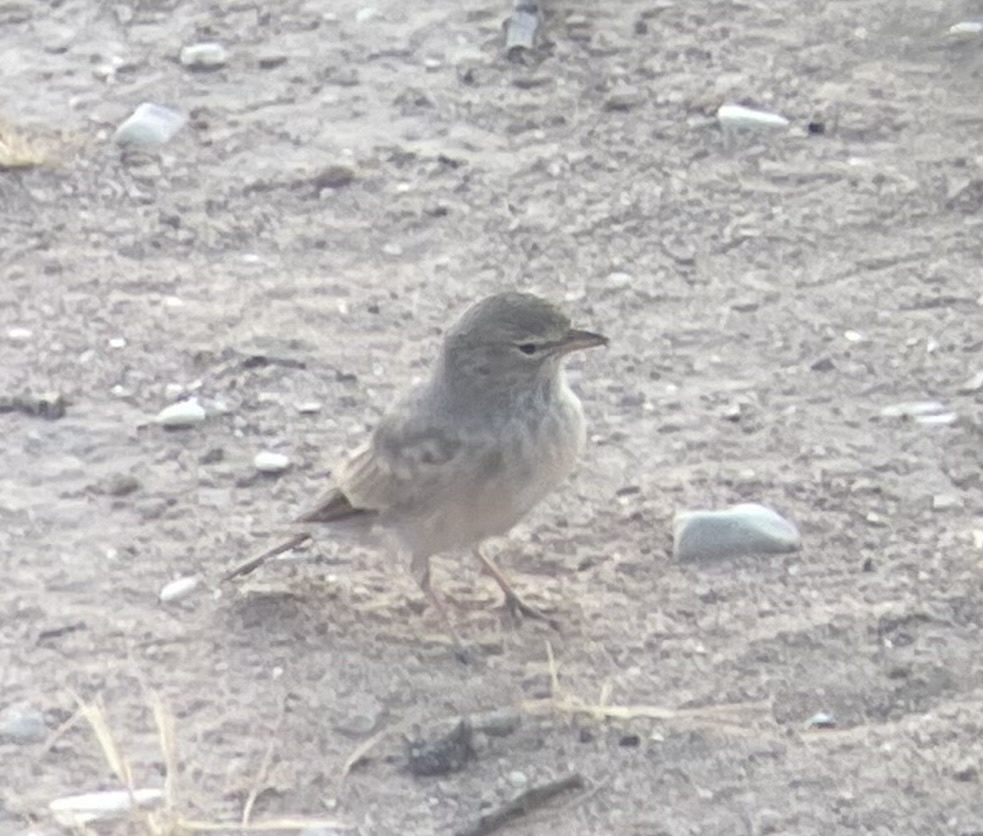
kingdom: Animalia
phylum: Chordata
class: Aves
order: Passeriformes
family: Alaudidae
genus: Ammomanes
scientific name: Ammomanes deserti
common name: Desert lark
